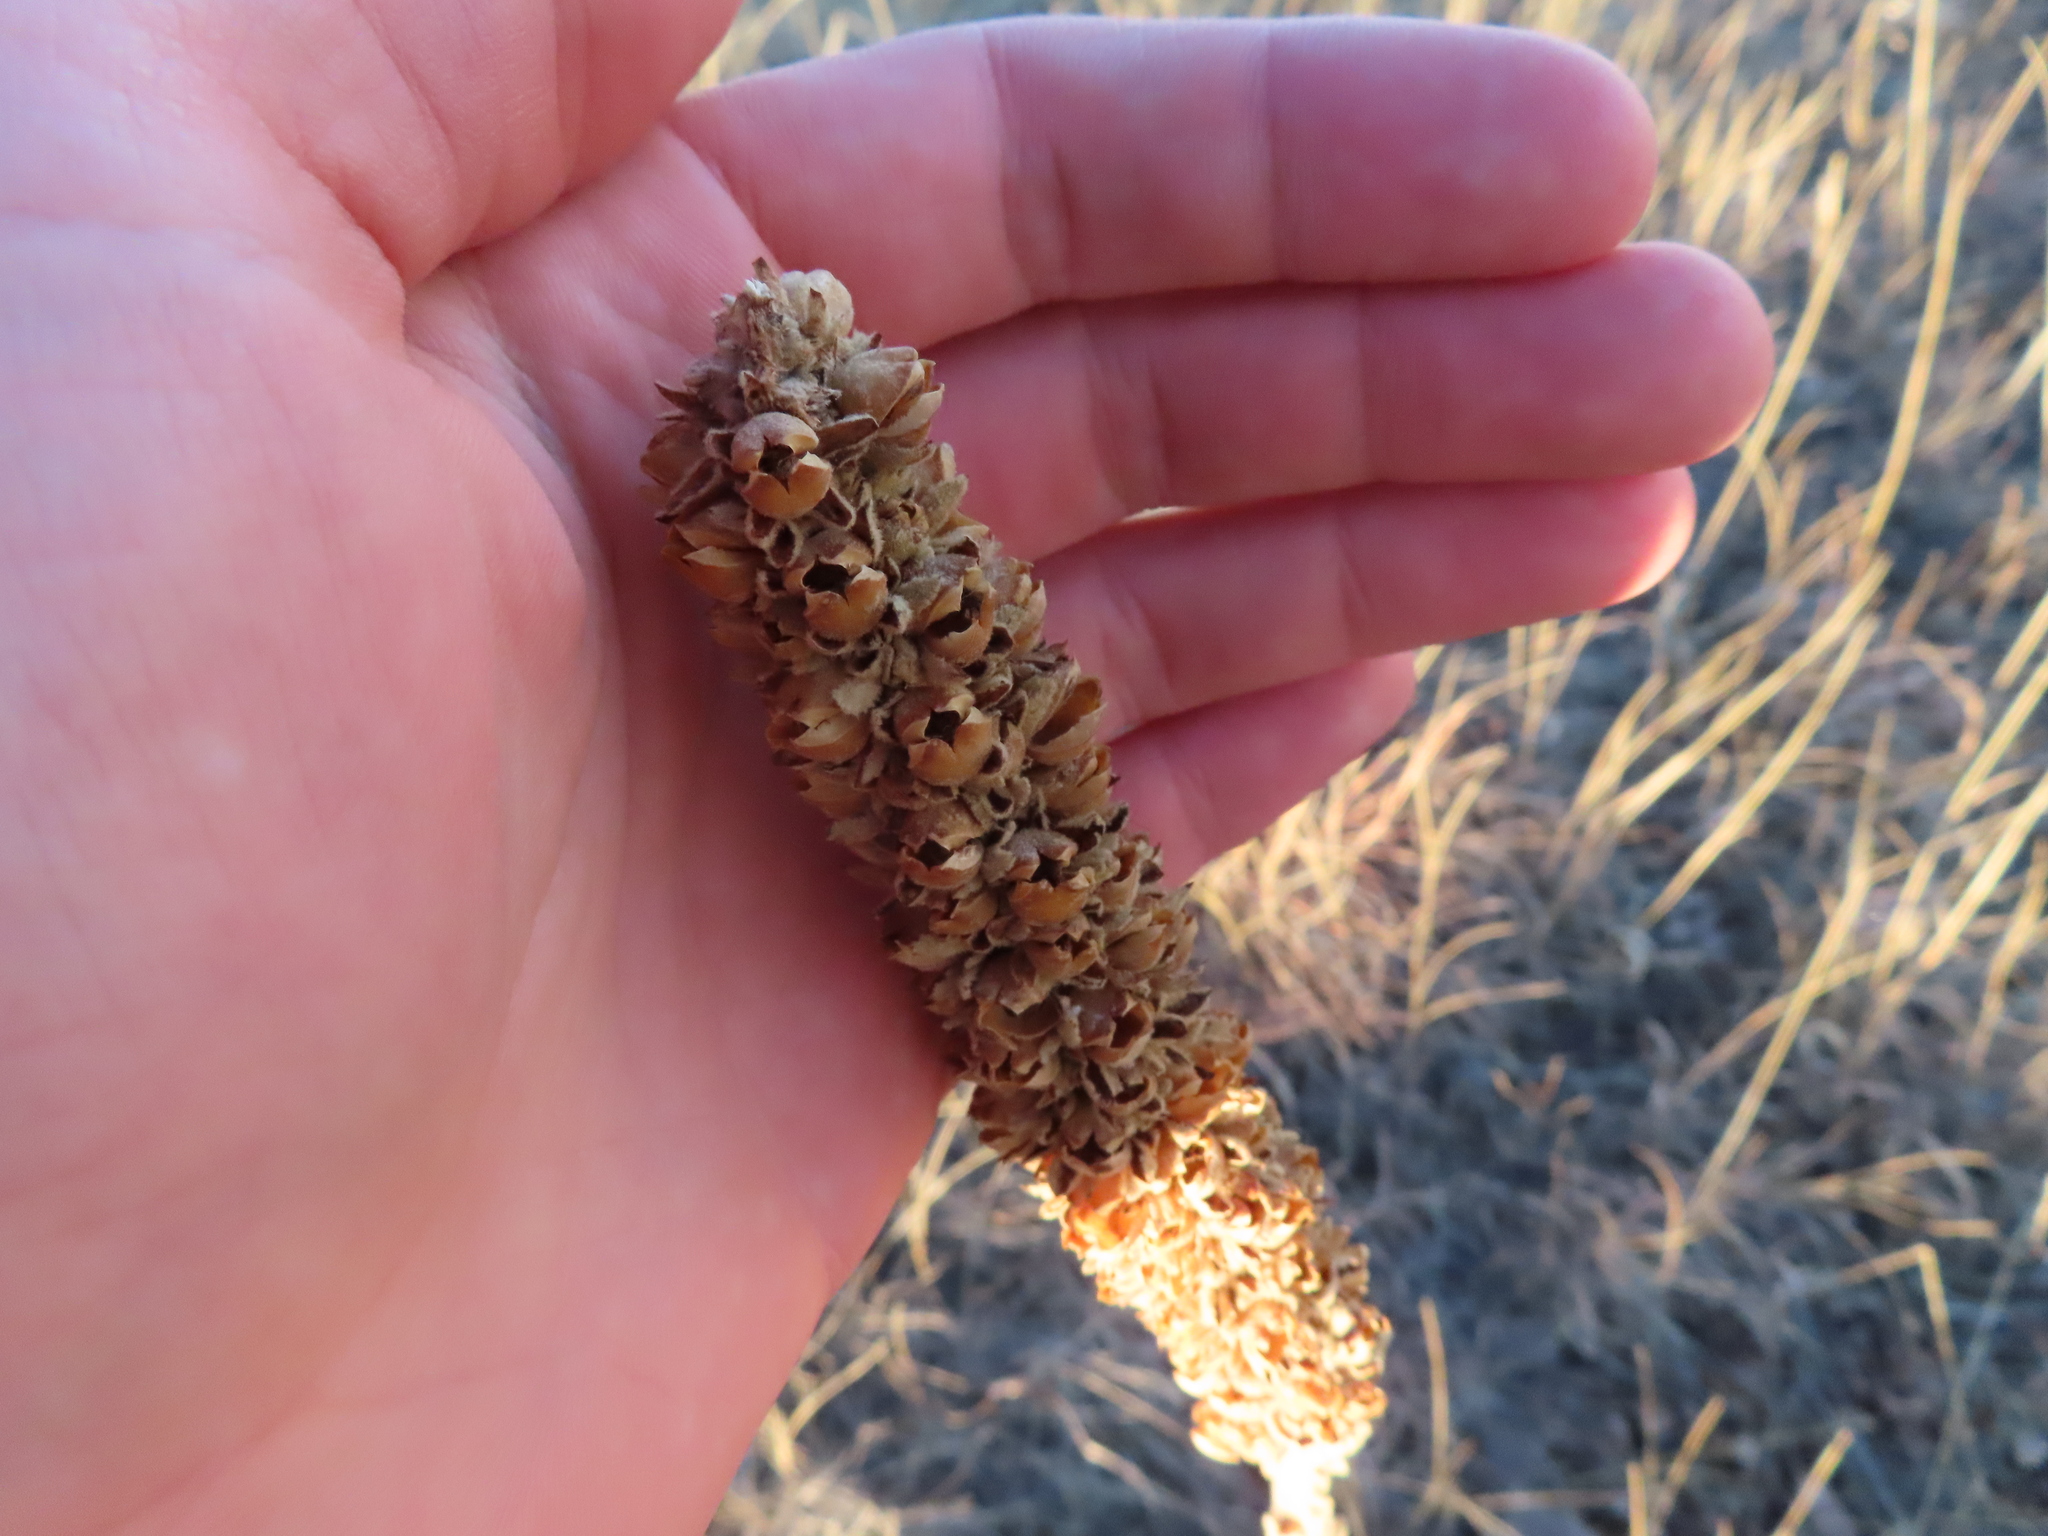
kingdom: Plantae
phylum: Tracheophyta
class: Magnoliopsida
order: Lamiales
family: Scrophulariaceae
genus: Verbascum
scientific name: Verbascum thapsus
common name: Common mullein
